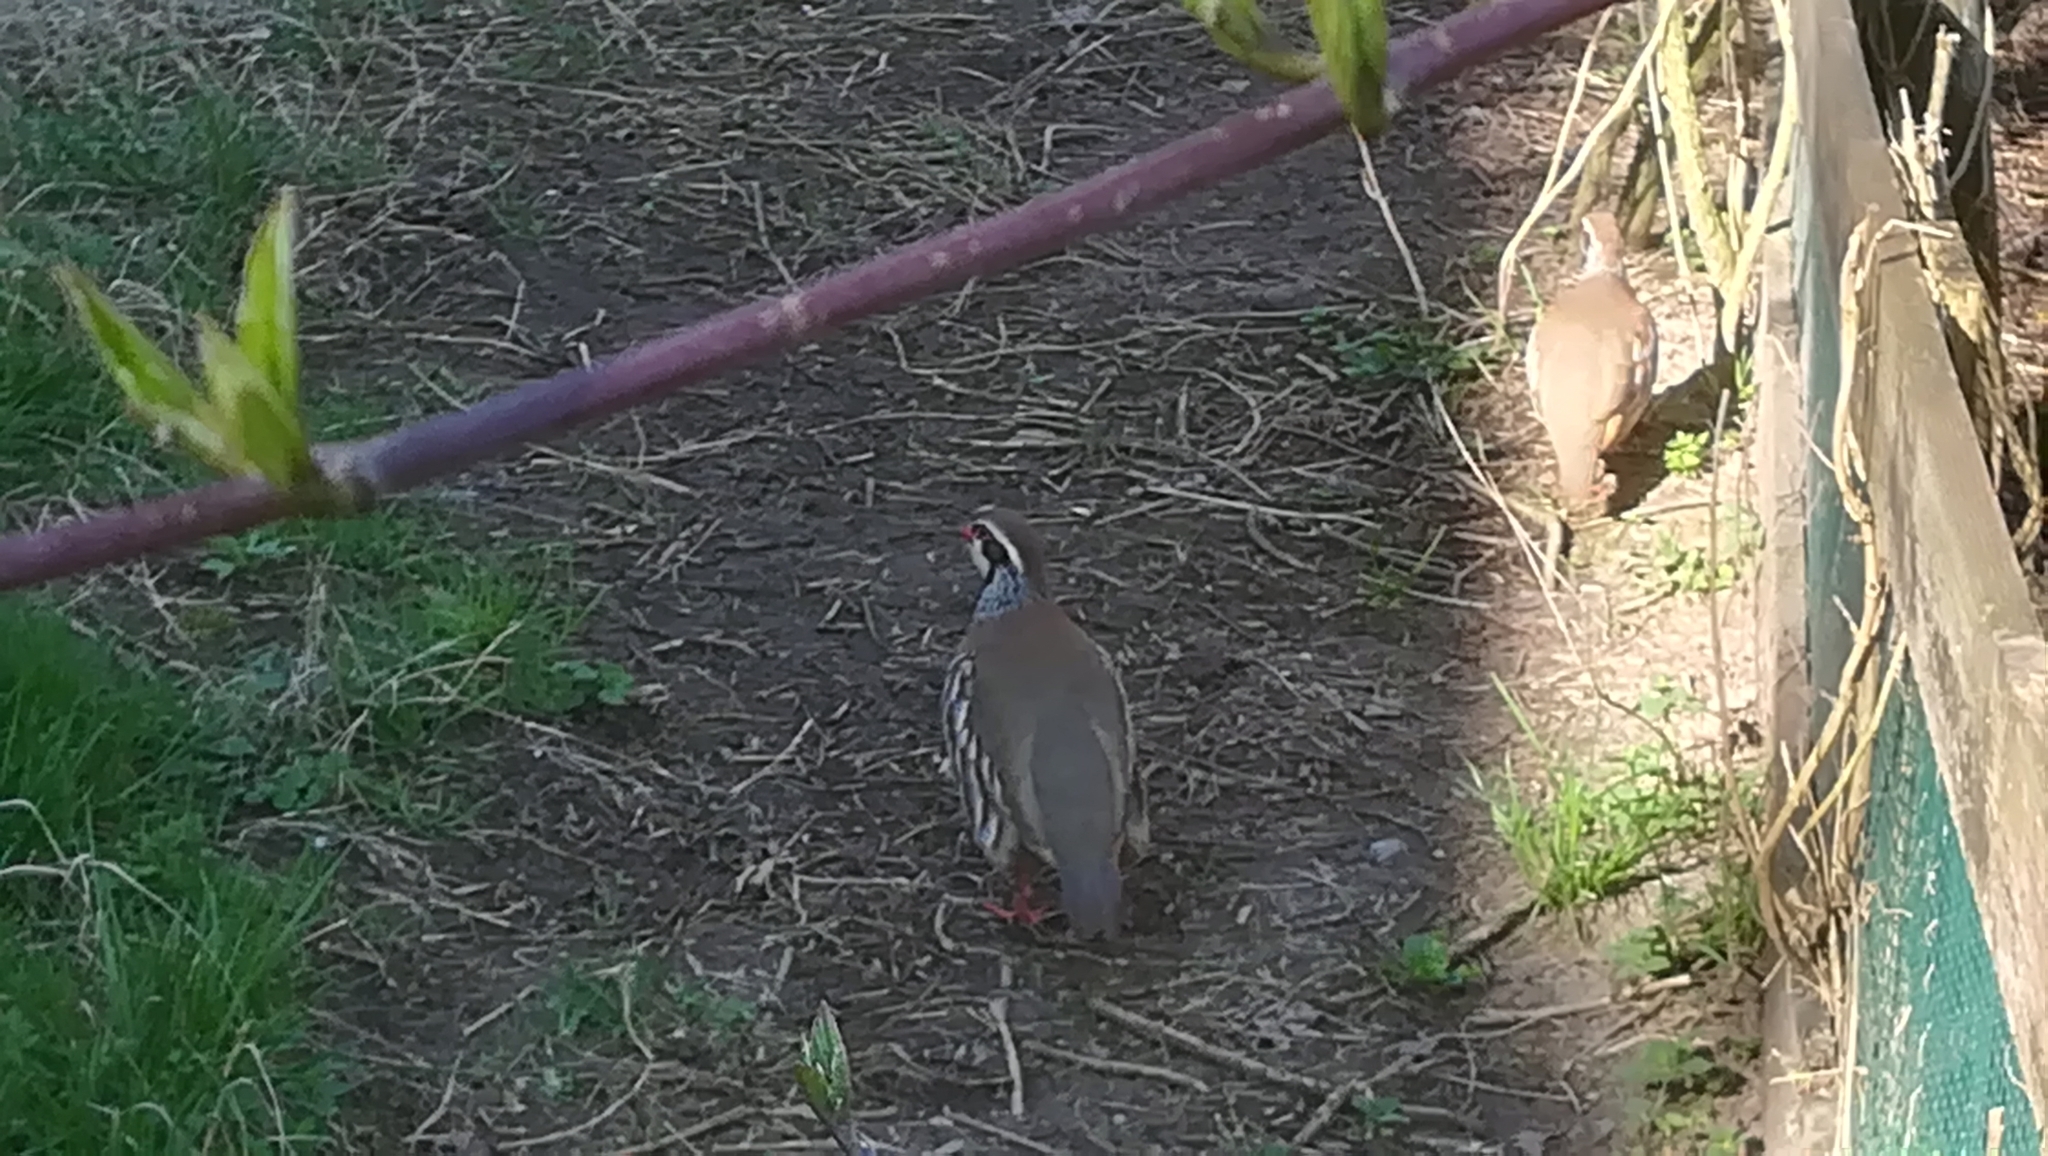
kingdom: Animalia
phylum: Chordata
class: Aves
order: Galliformes
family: Phasianidae
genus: Alectoris
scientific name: Alectoris rufa
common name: Red-legged partridge
